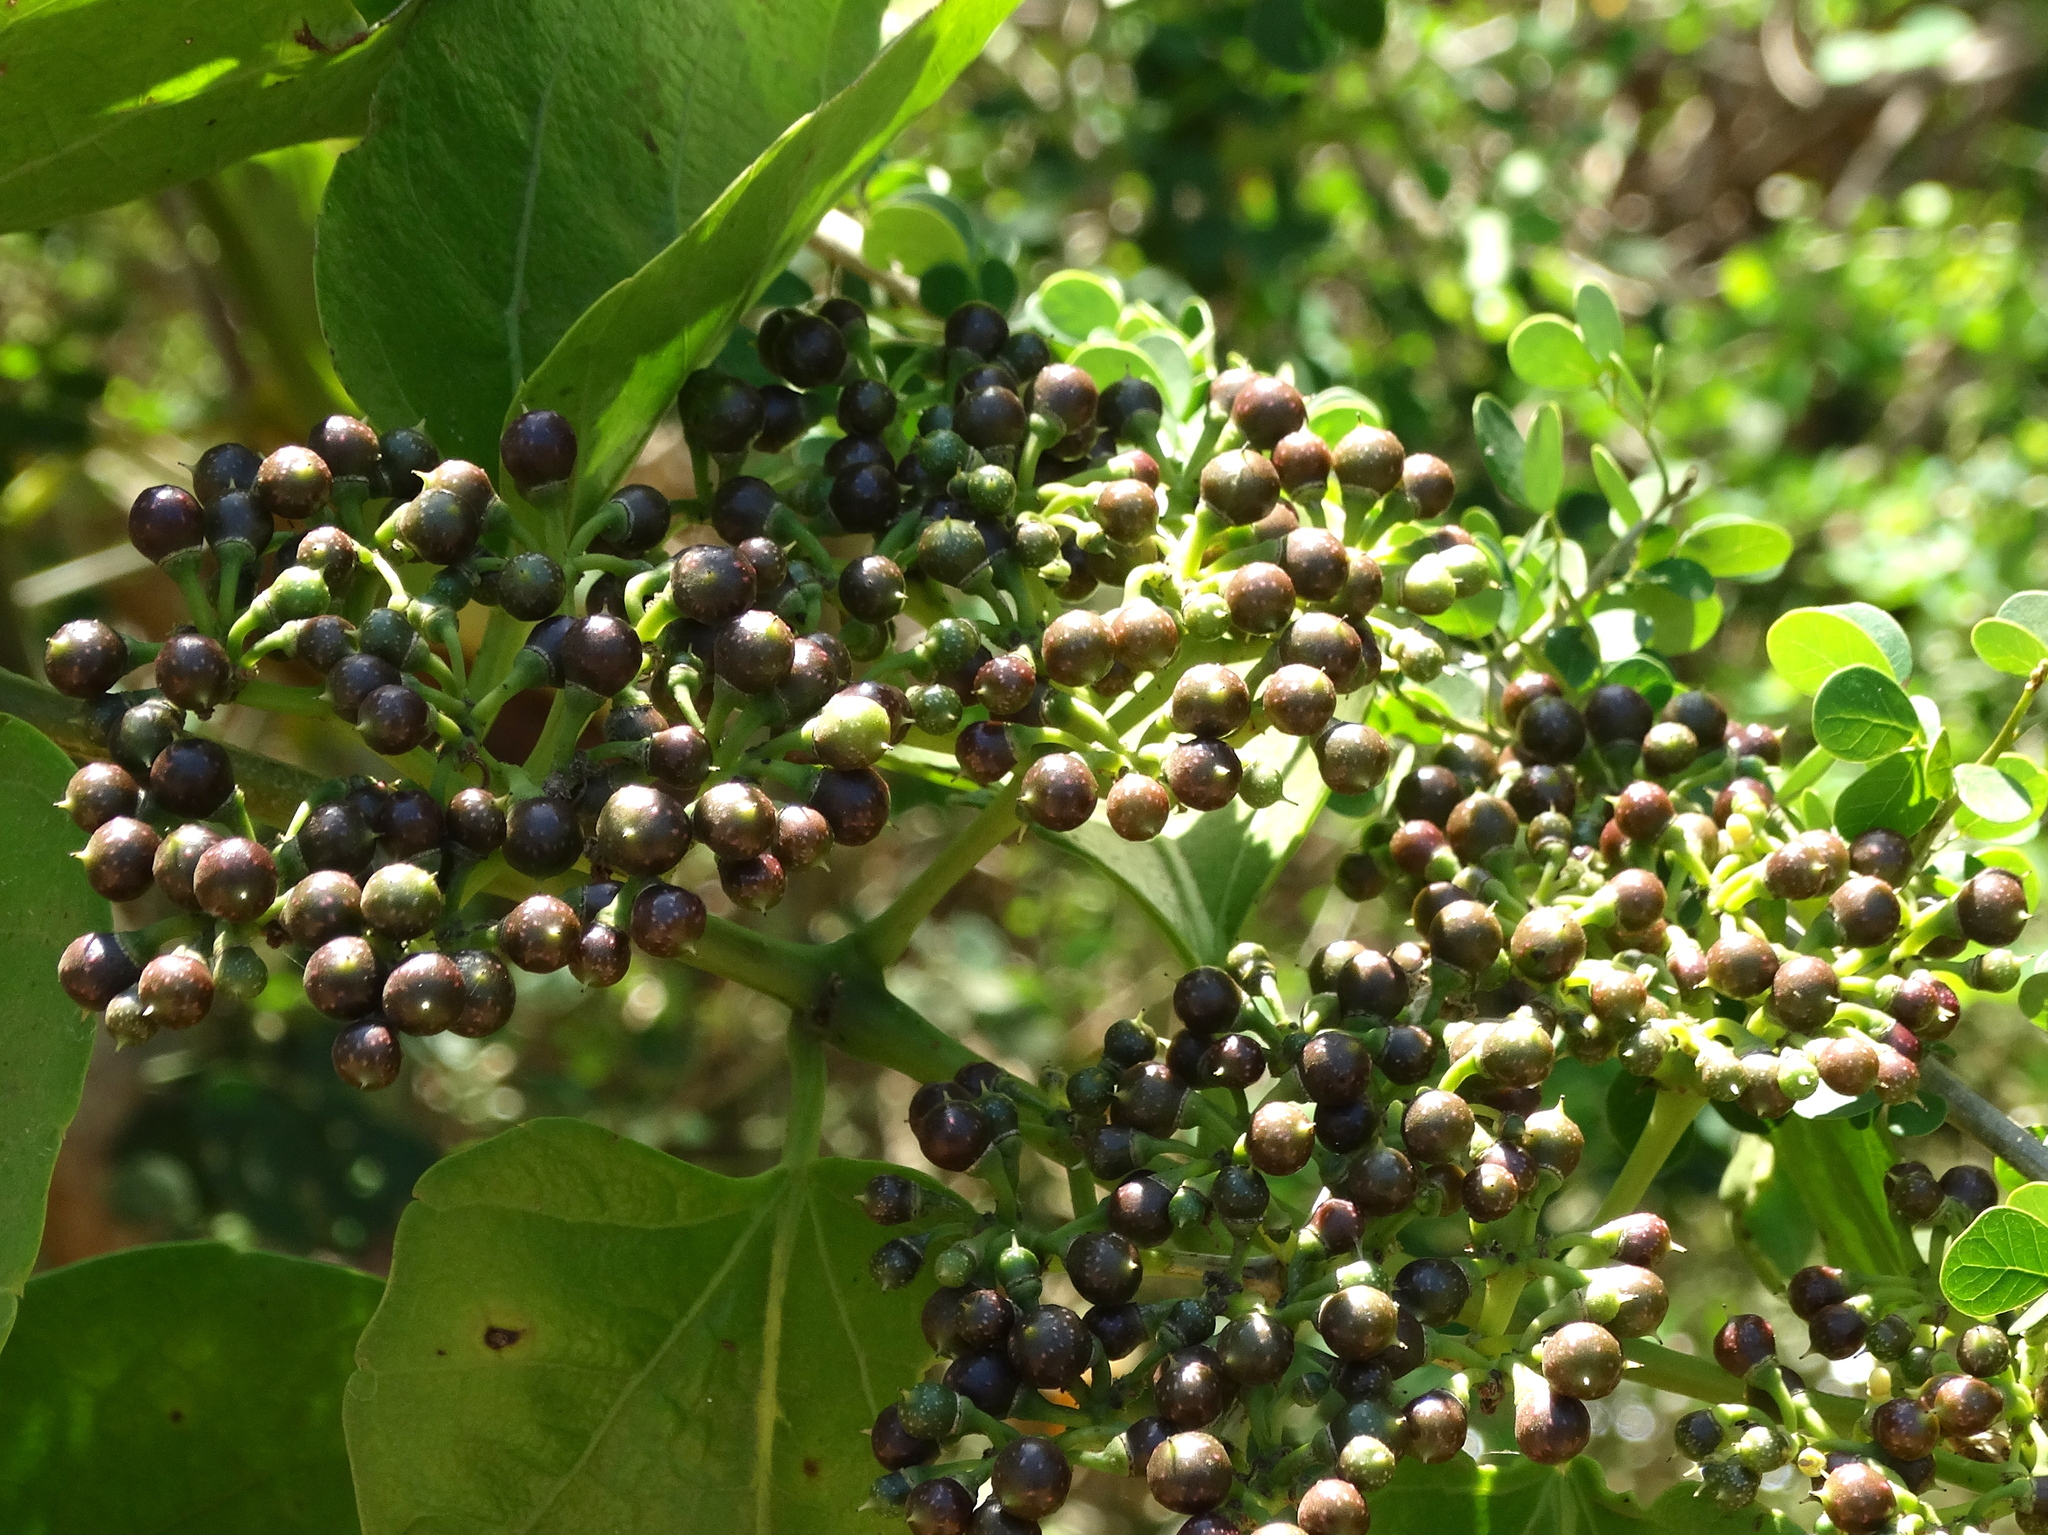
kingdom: Plantae
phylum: Tracheophyta
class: Magnoliopsida
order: Vitales
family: Vitaceae
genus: Cissus
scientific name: Cissus verticillata
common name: Princess vine
